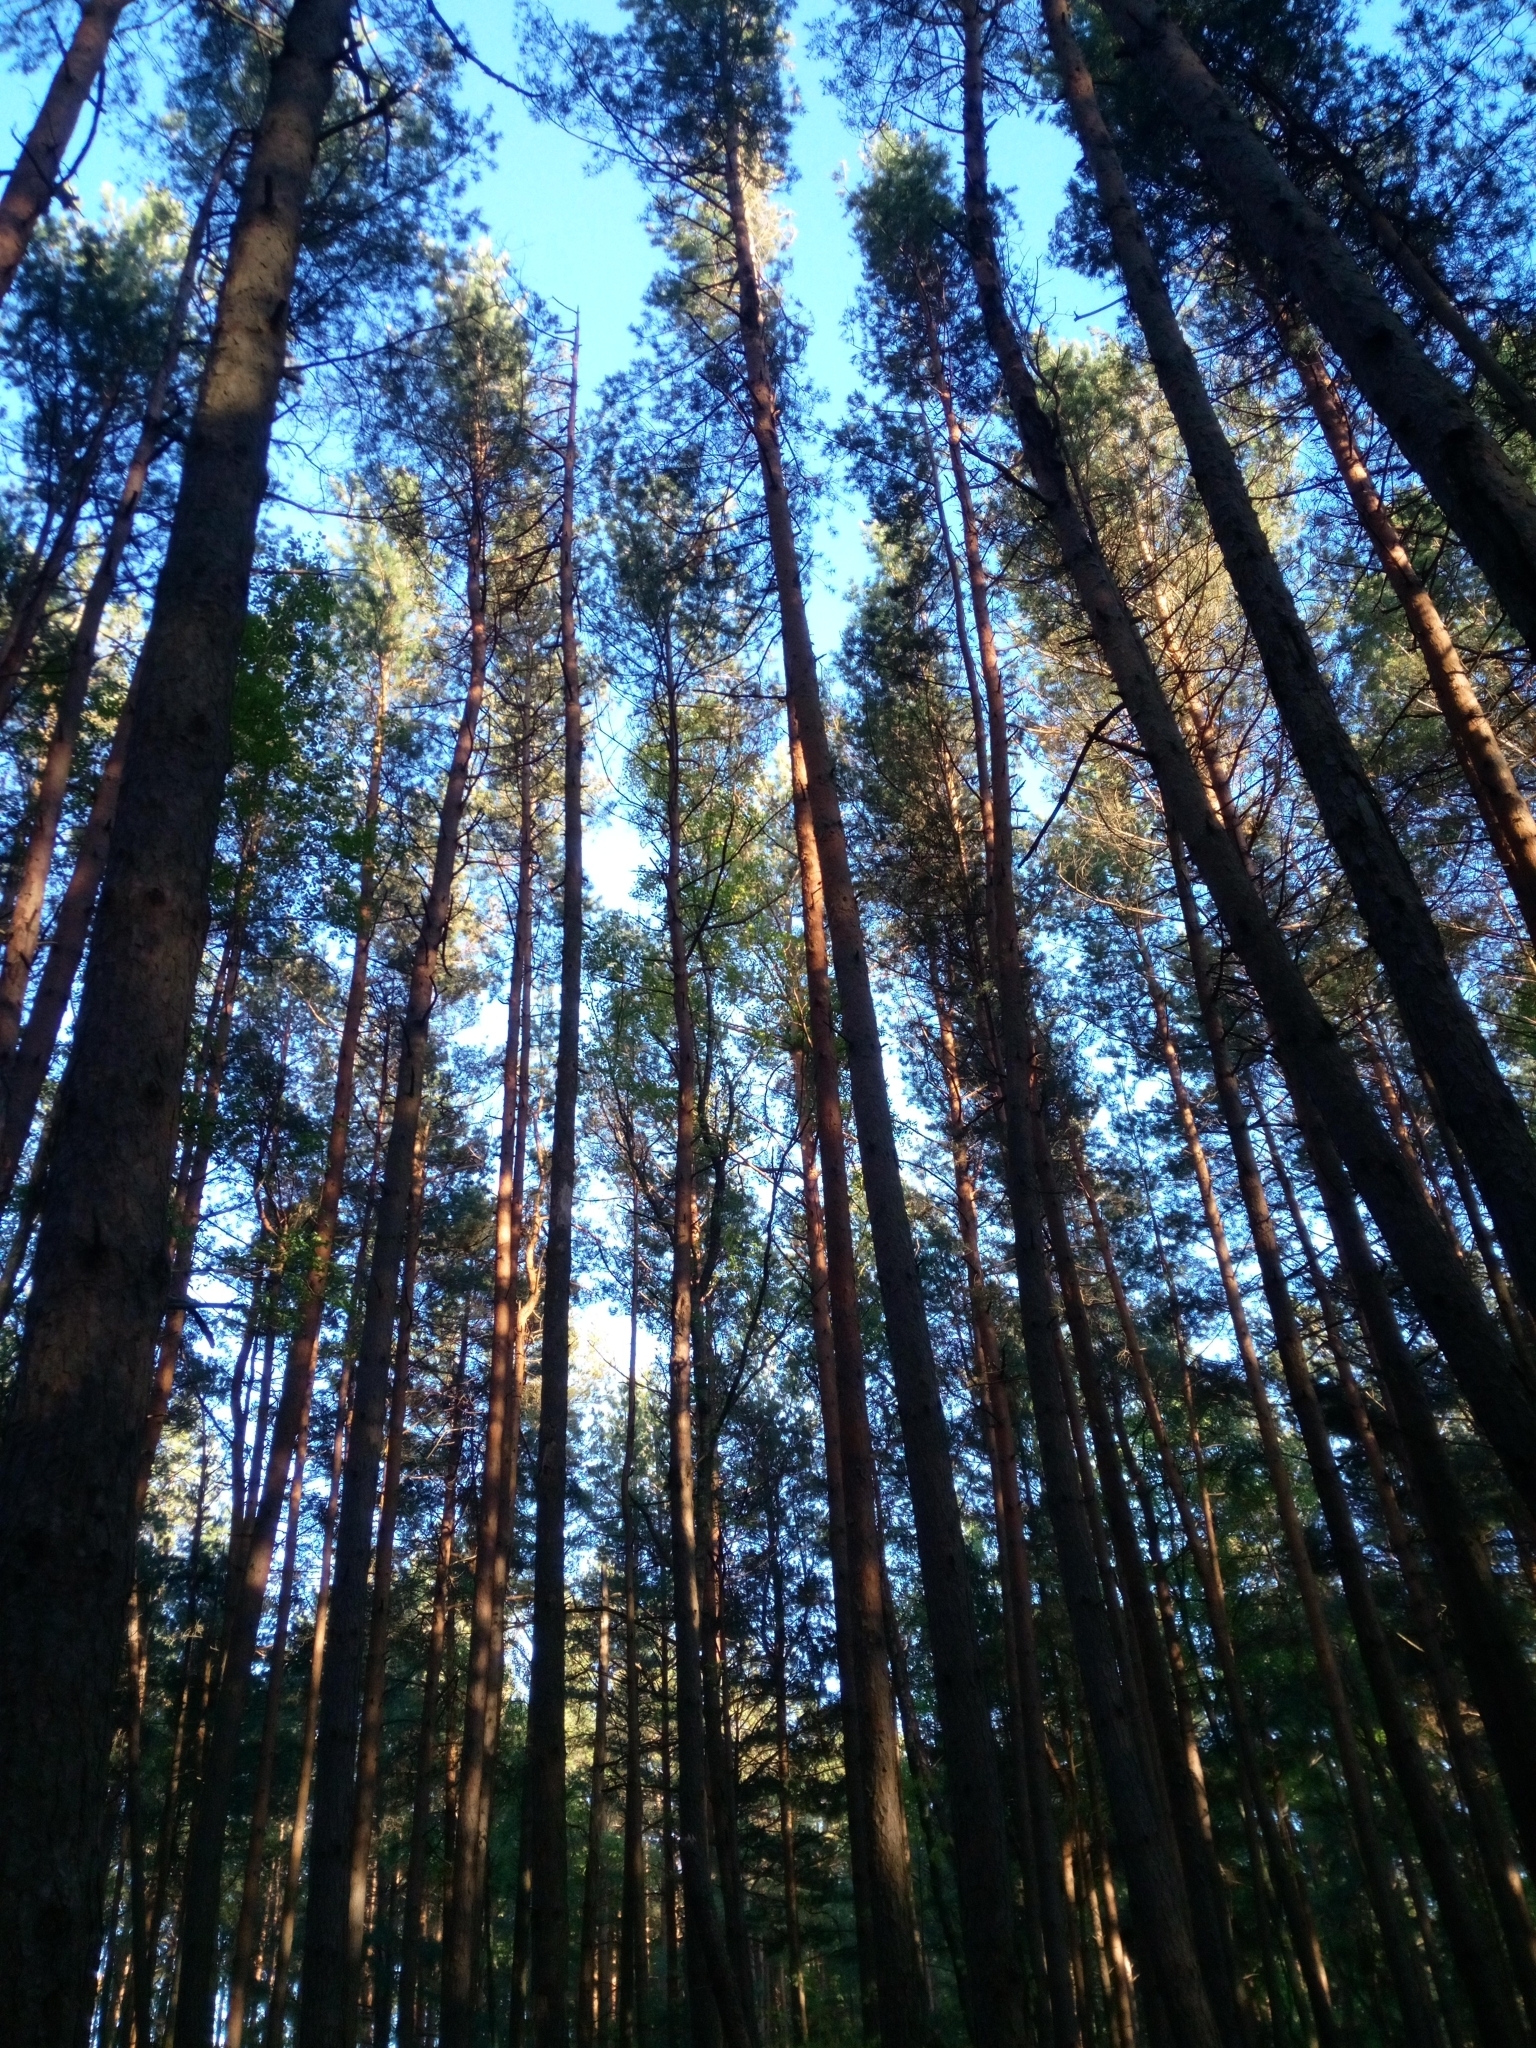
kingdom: Plantae
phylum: Tracheophyta
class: Pinopsida
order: Pinales
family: Pinaceae
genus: Pinus
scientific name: Pinus sylvestris
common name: Scots pine
